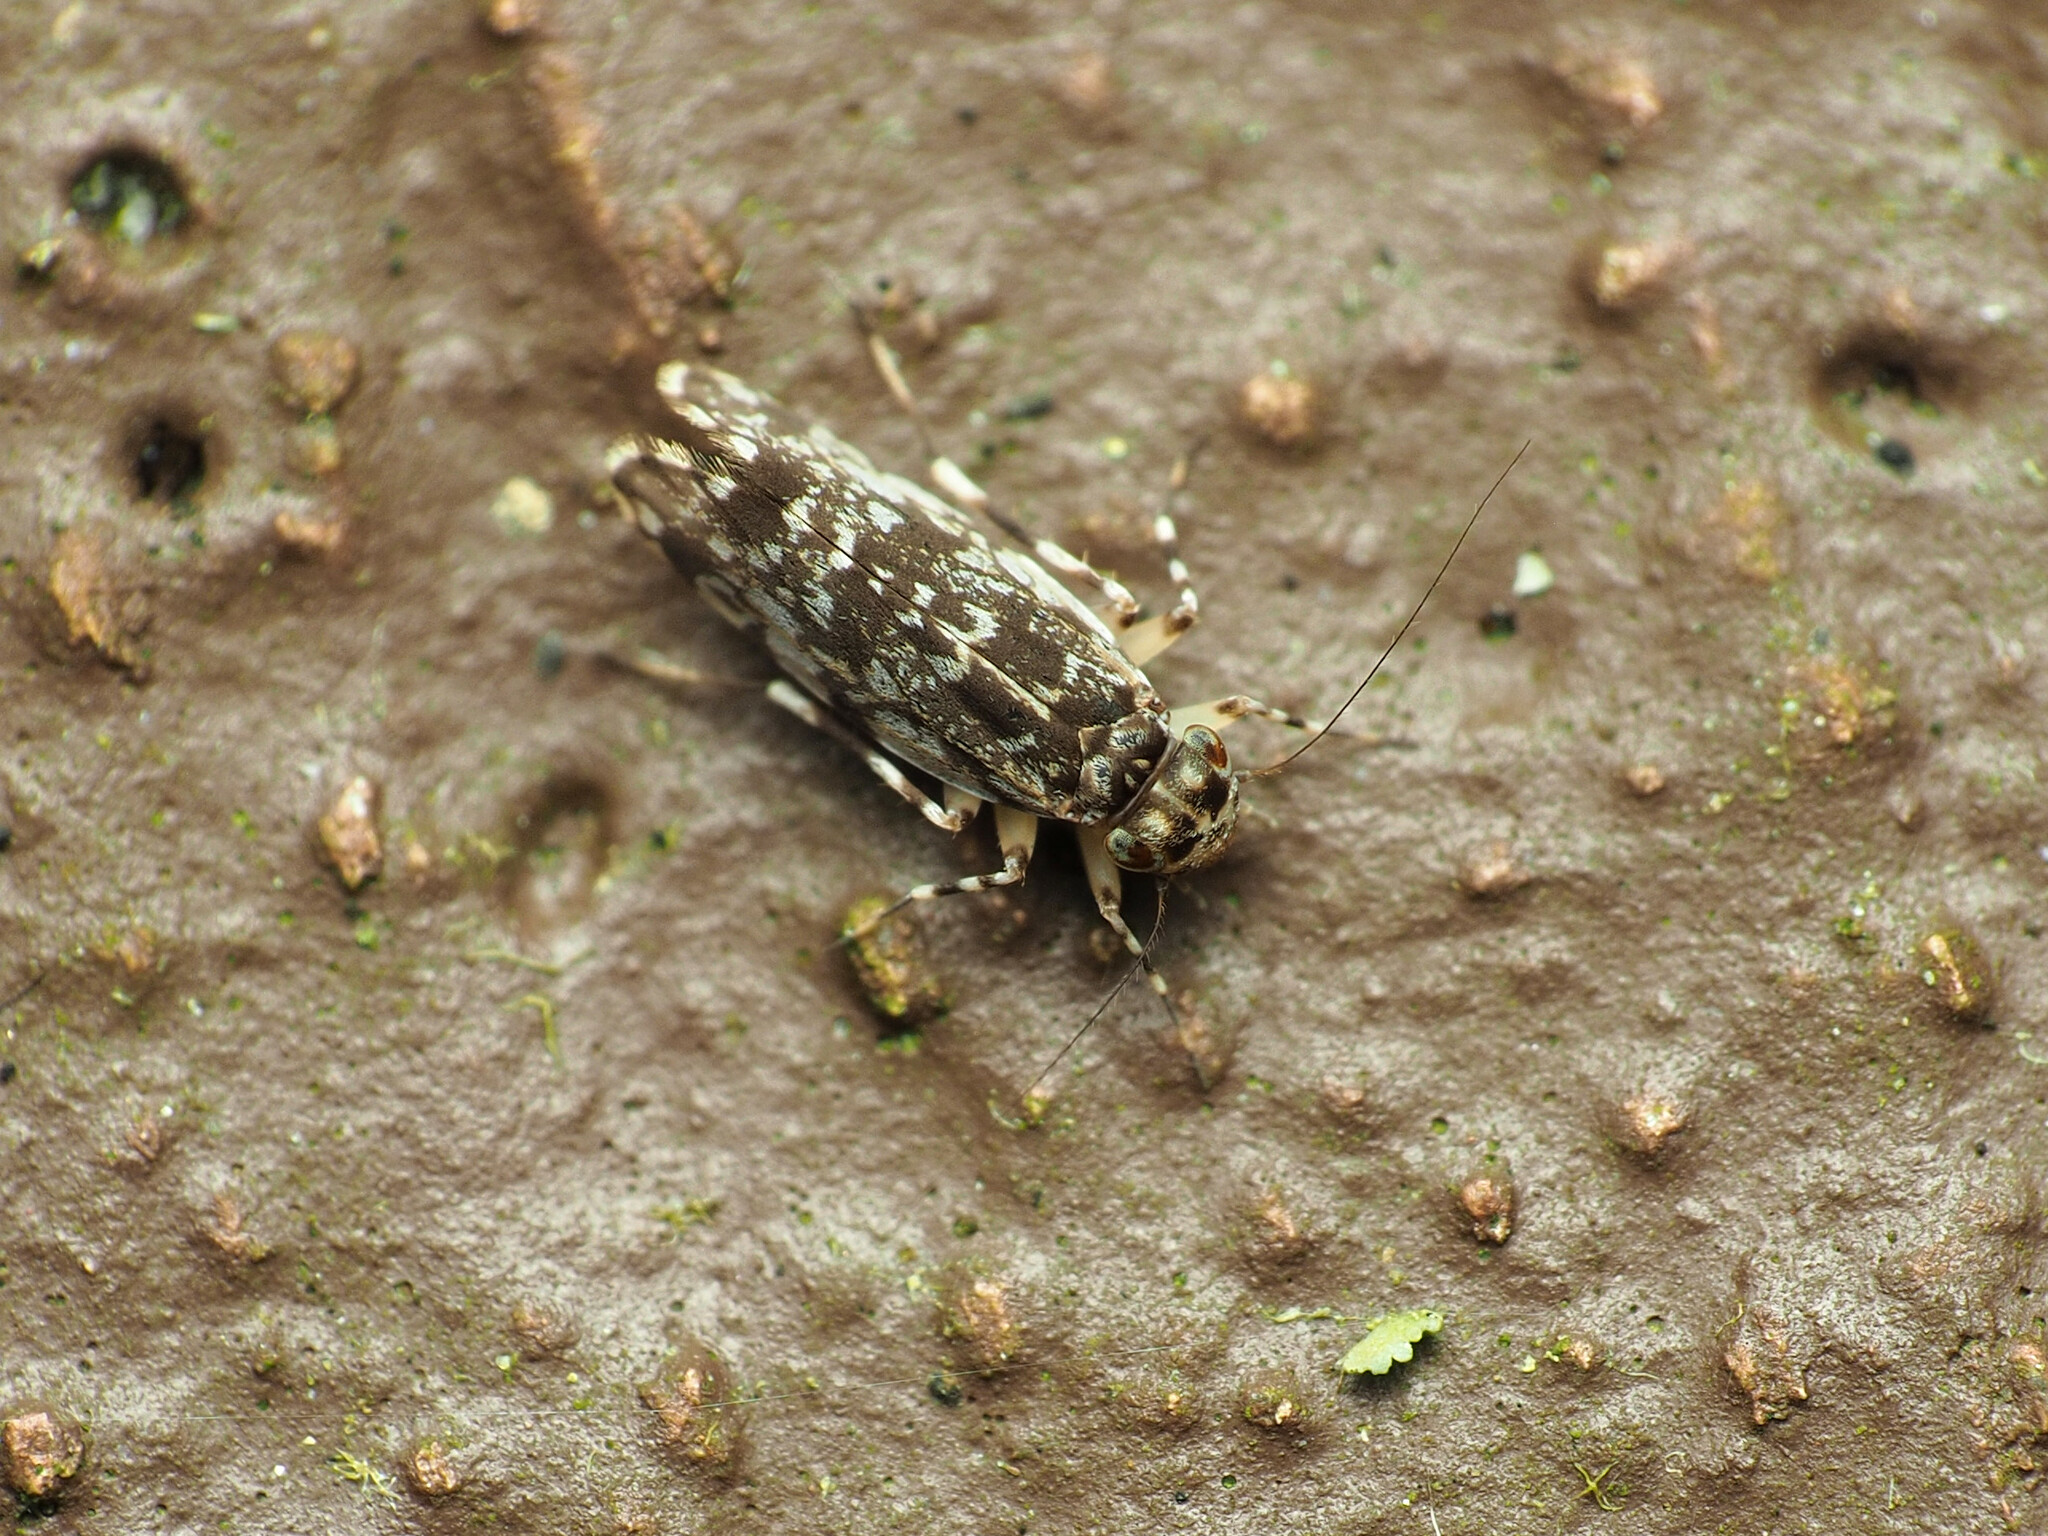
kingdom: Animalia
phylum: Arthropoda
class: Insecta
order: Psocodea
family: Amphientomidae
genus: Stimulopalpus
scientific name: Stimulopalpus japonicus
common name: Tropical bark louse
